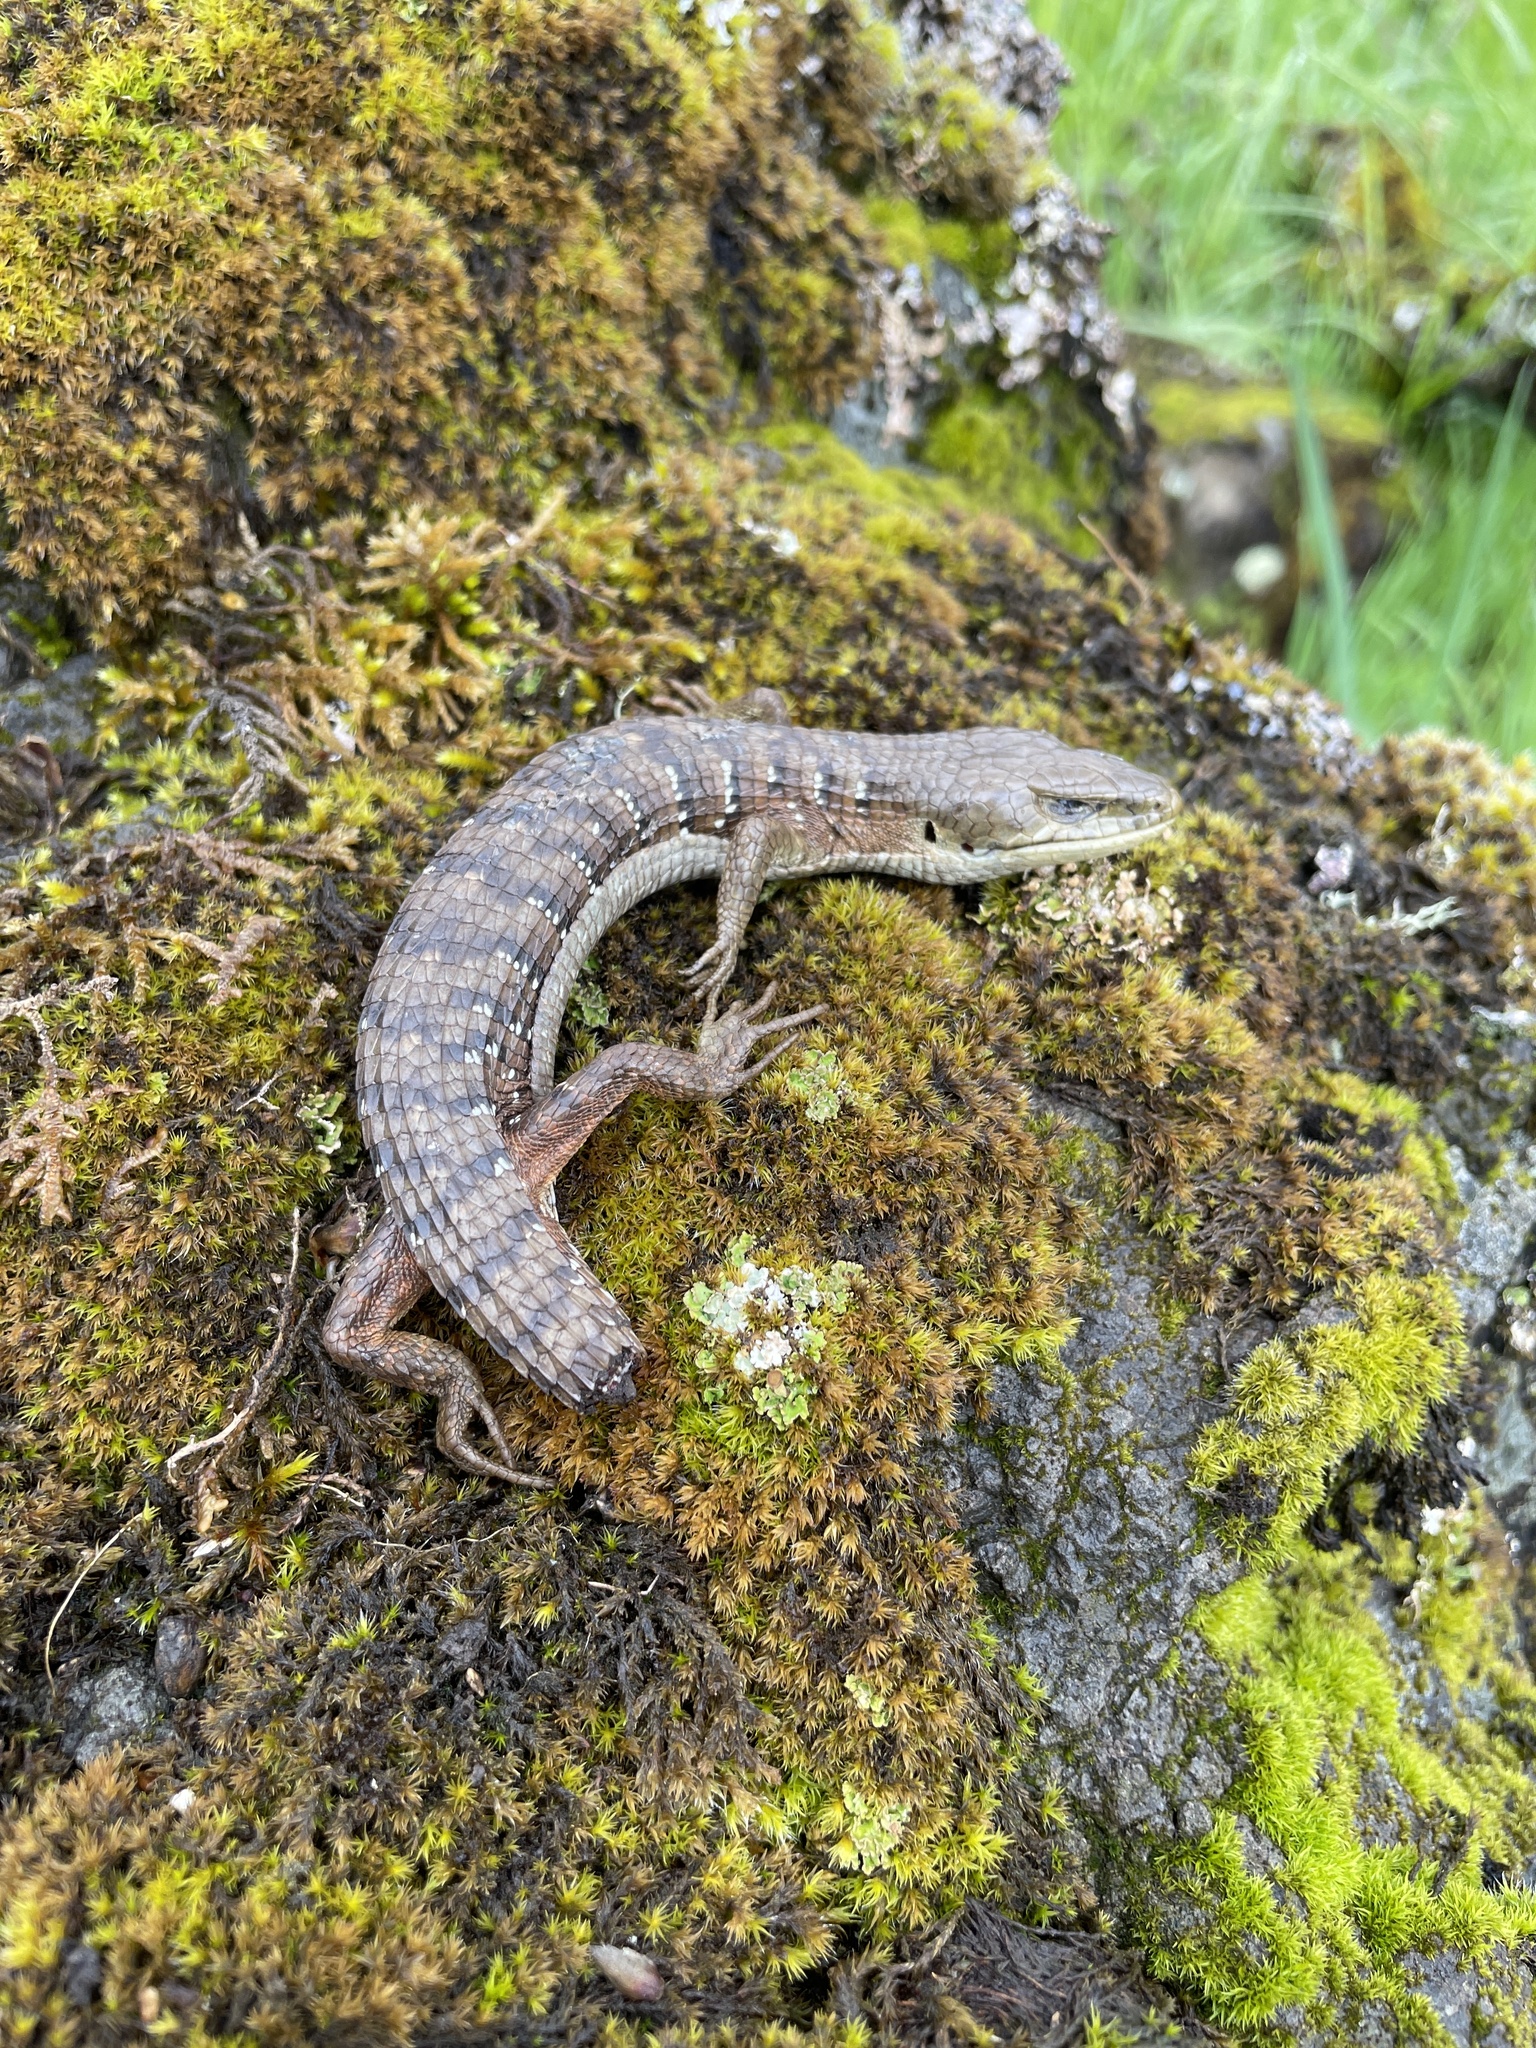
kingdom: Animalia
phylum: Chordata
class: Squamata
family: Anguidae
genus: Elgaria
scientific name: Elgaria multicarinata
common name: Southern alligator lizard
